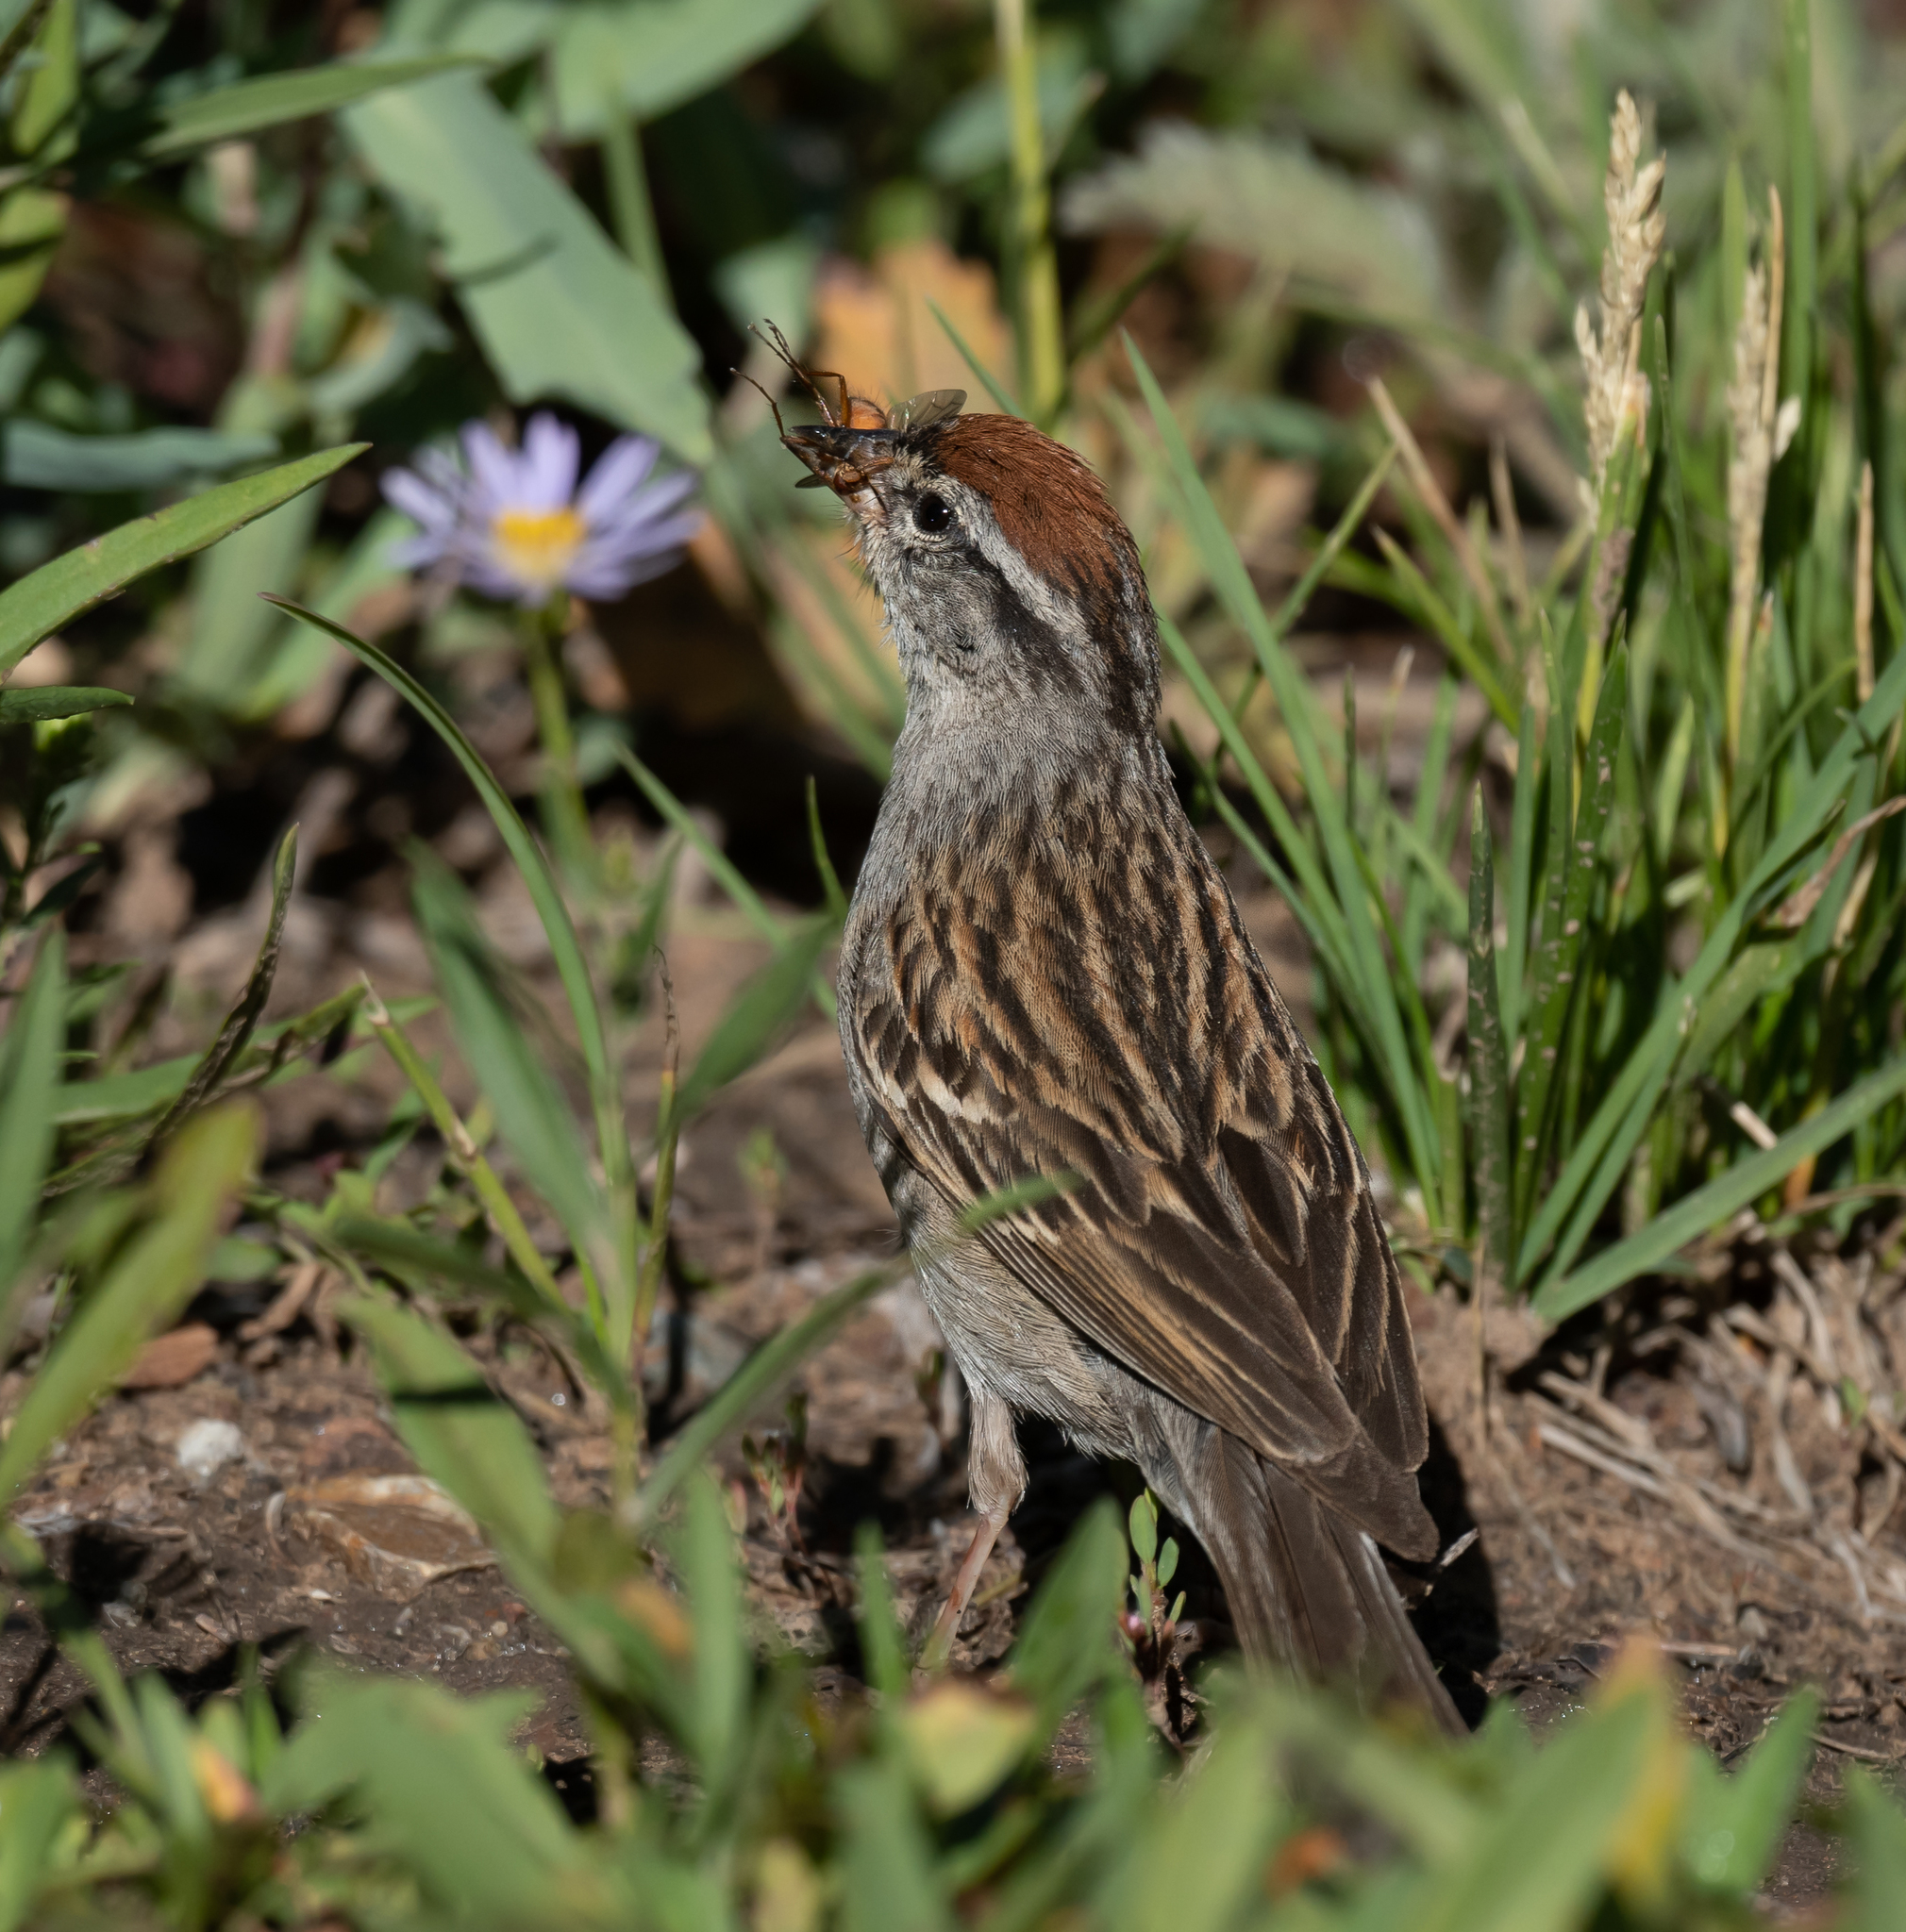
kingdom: Animalia
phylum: Chordata
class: Aves
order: Passeriformes
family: Passerellidae
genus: Spizella
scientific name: Spizella passerina
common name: Chipping sparrow
